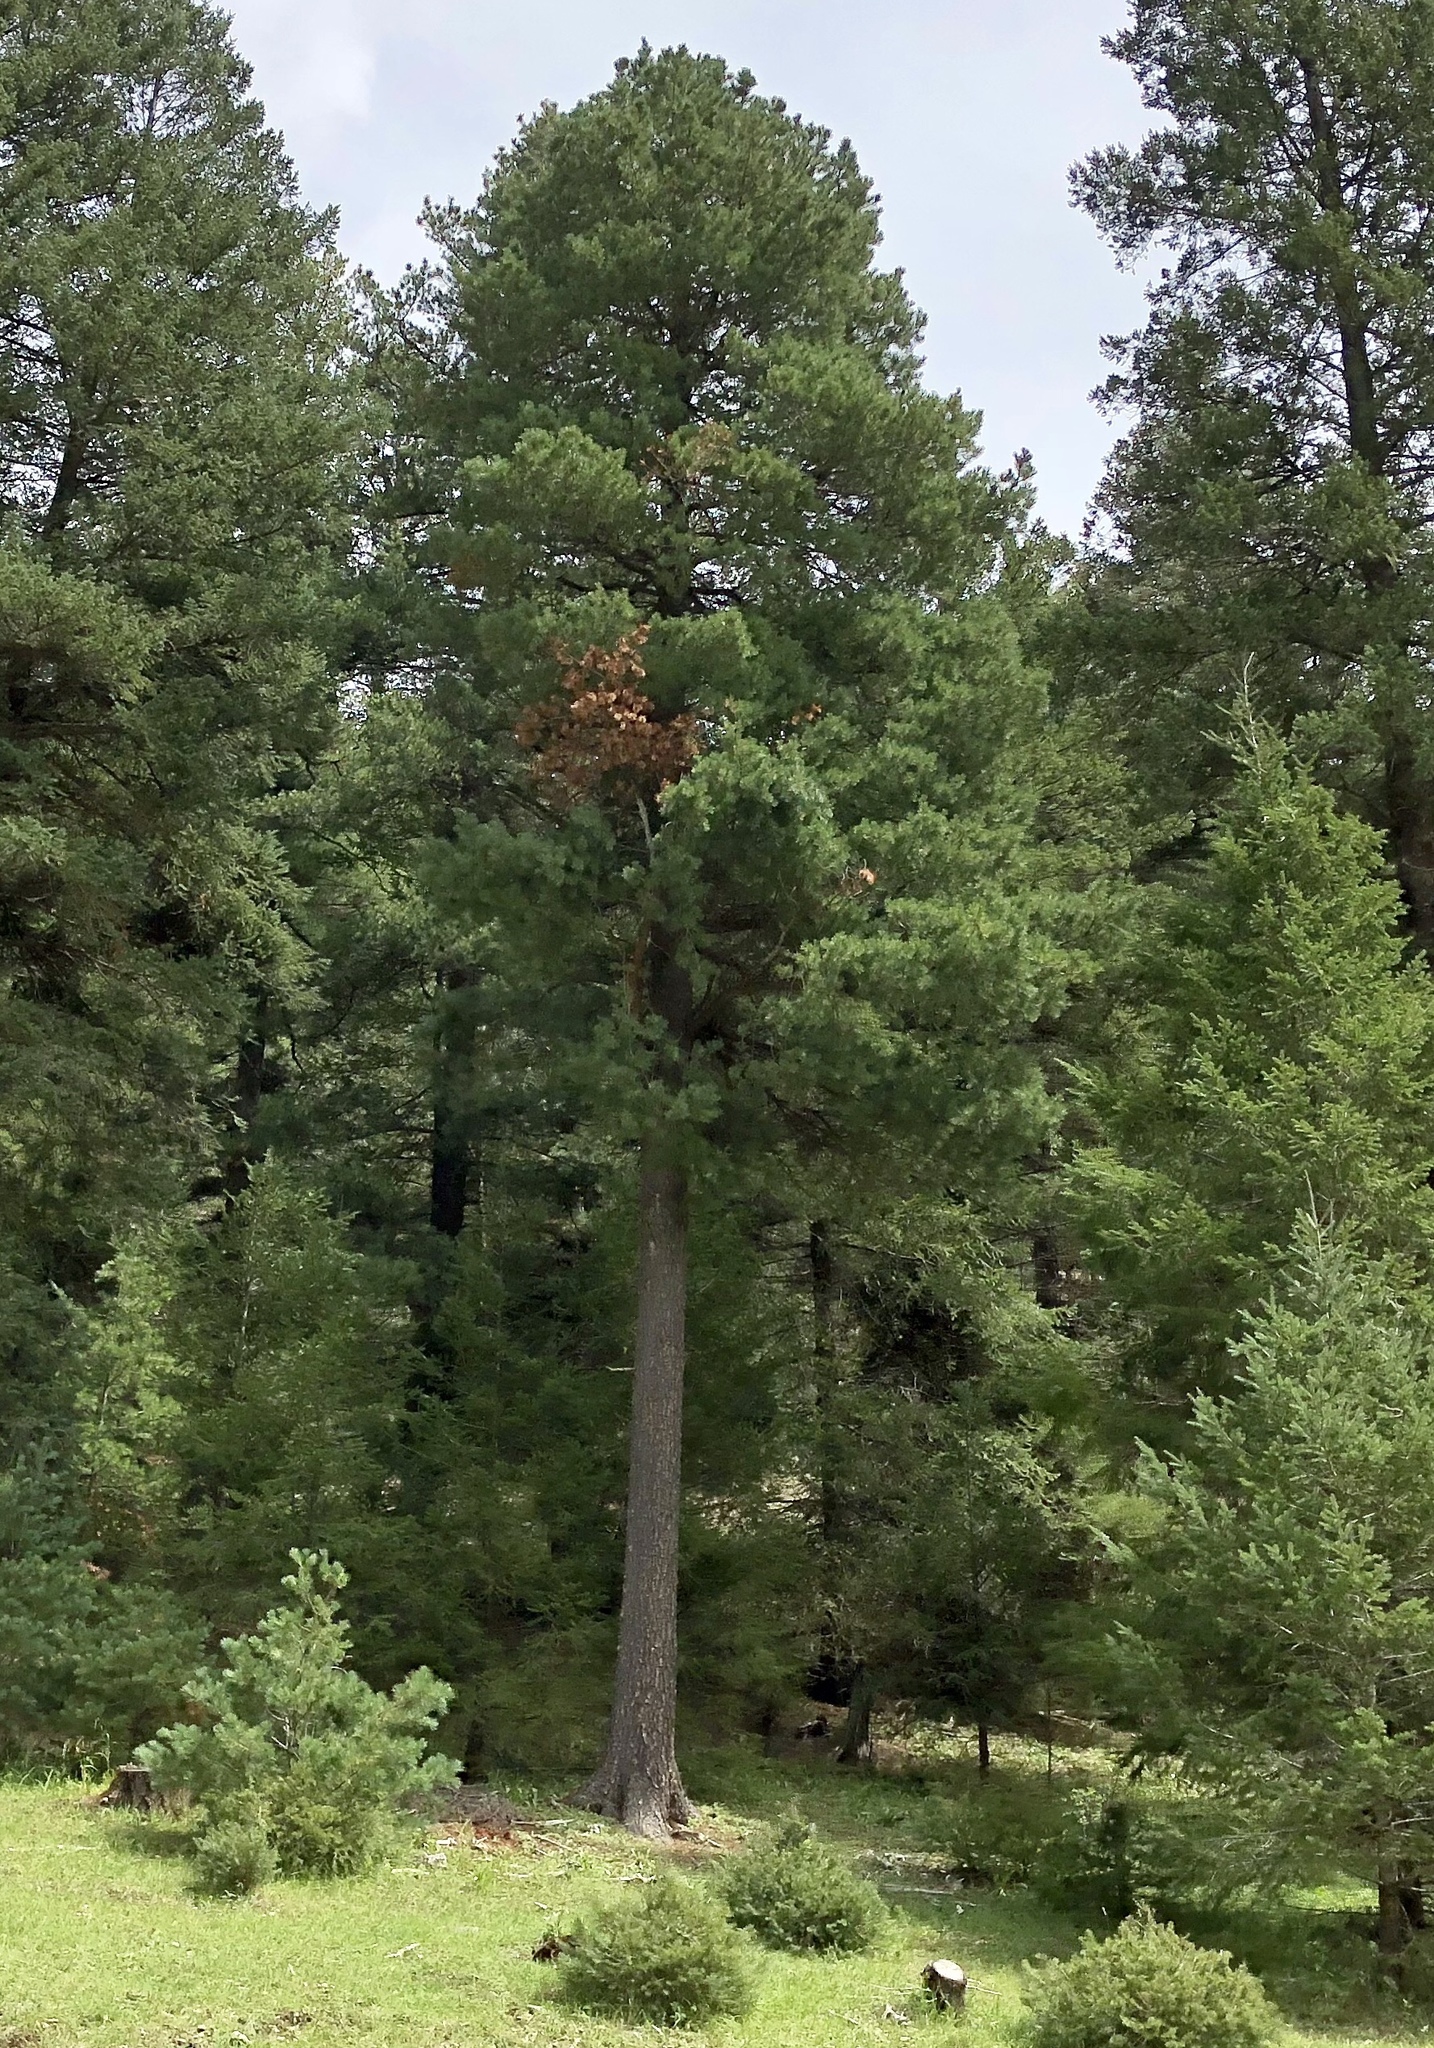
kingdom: Plantae
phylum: Tracheophyta
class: Pinopsida
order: Pinales
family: Pinaceae
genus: Pinus
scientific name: Pinus strobiformis
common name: Southwestern white pine
